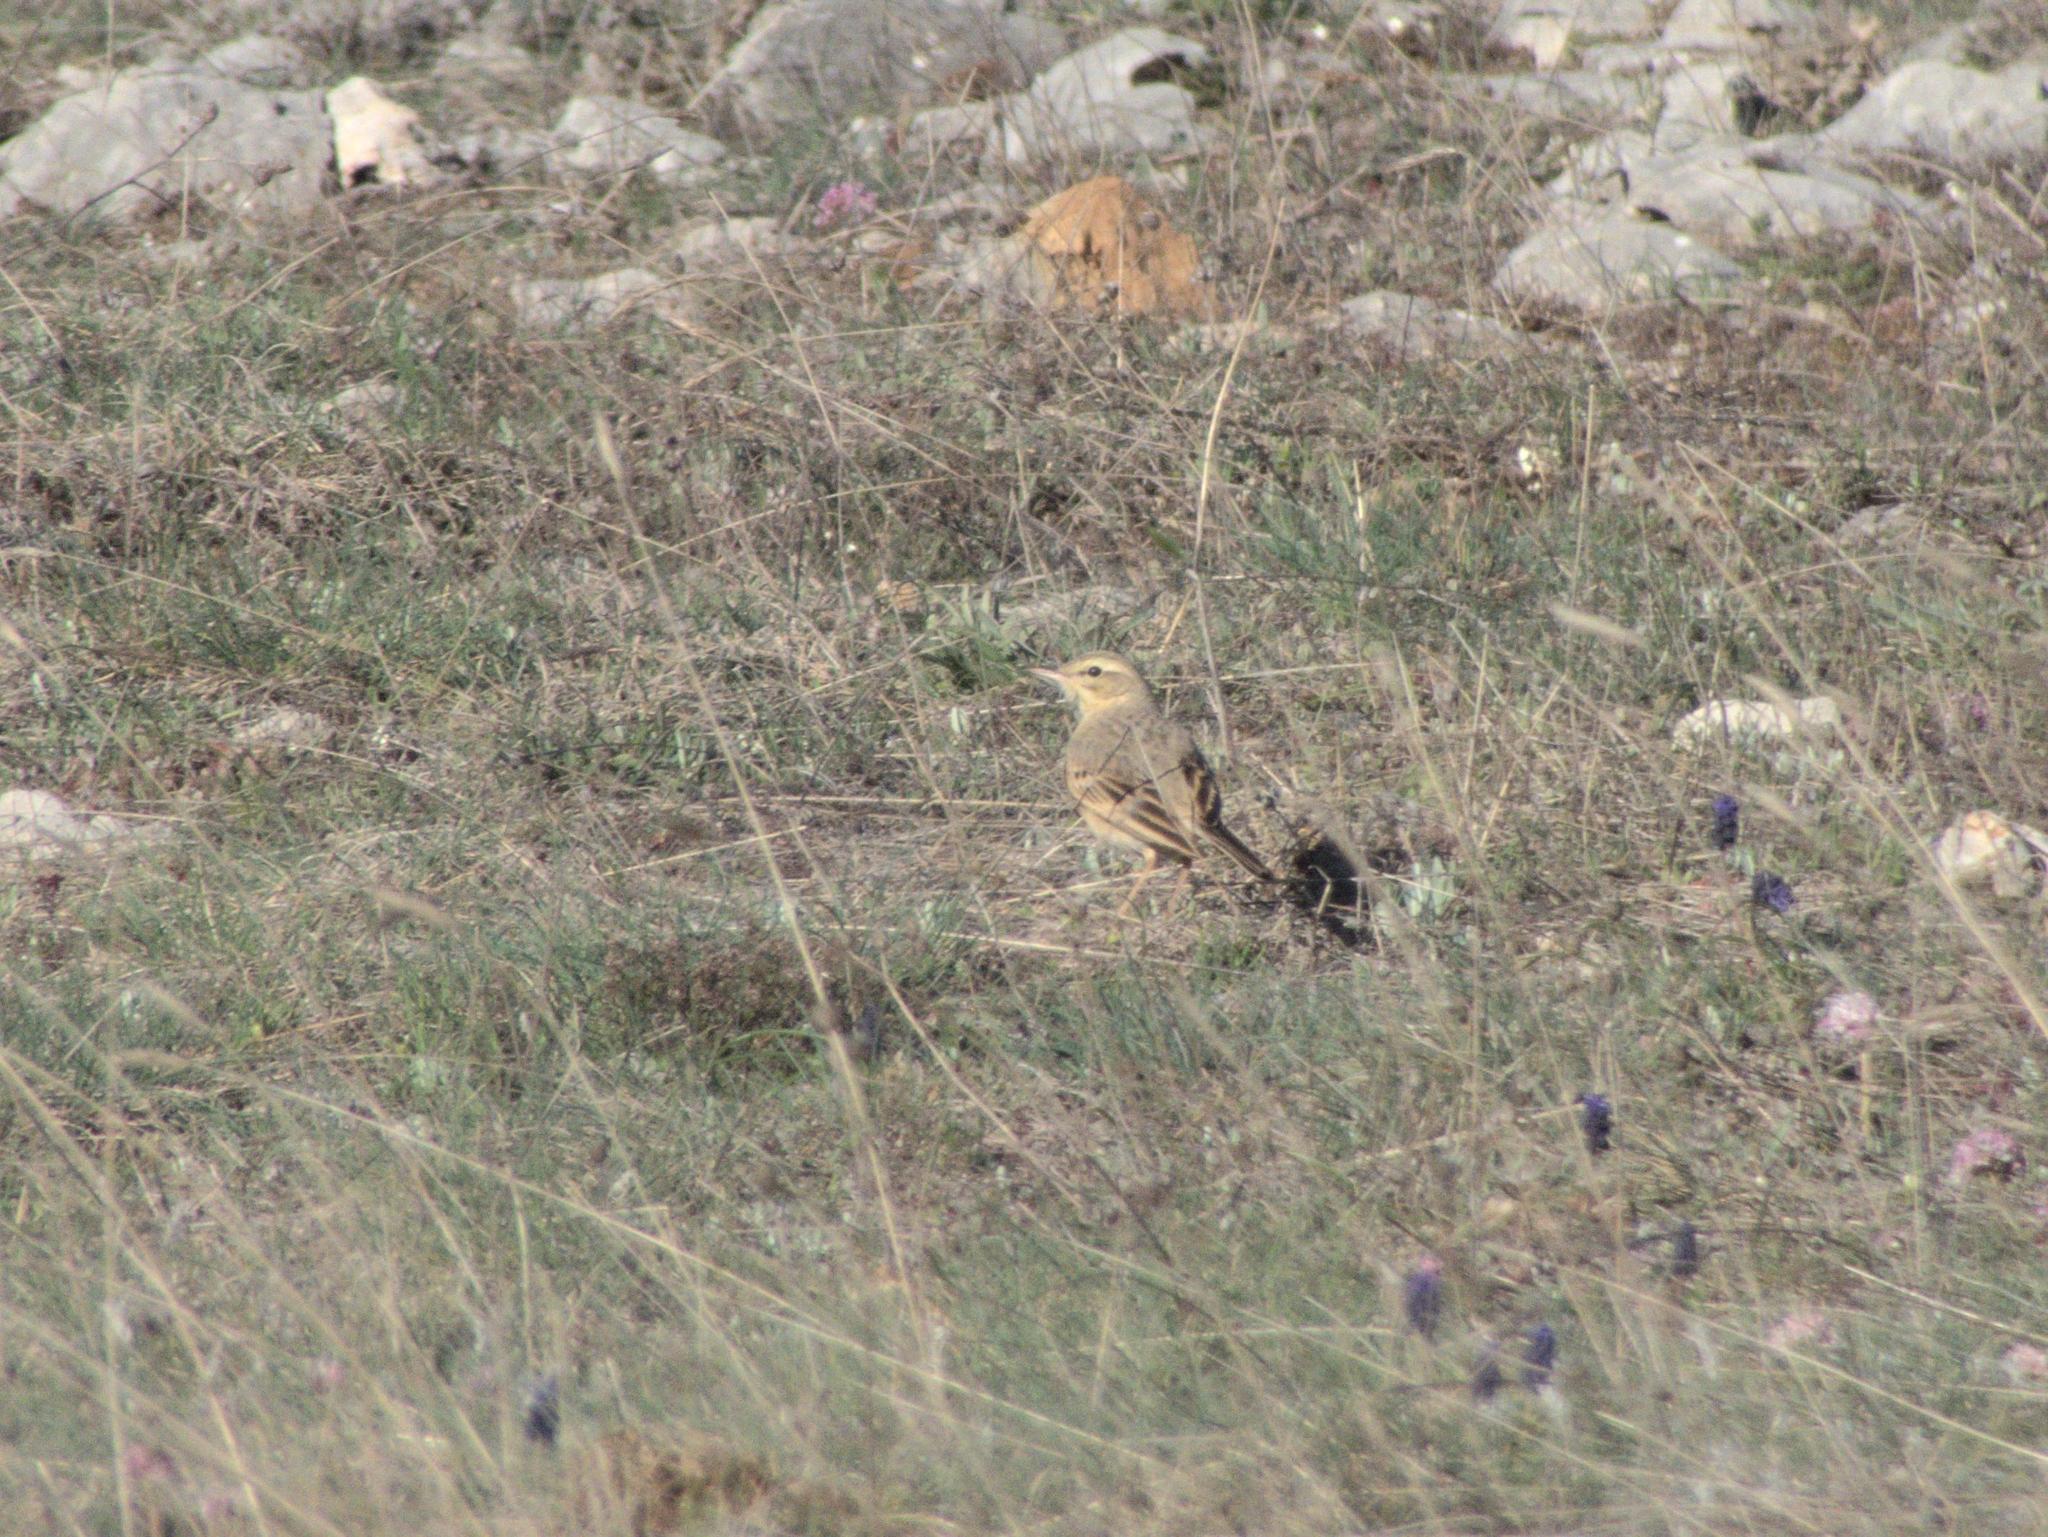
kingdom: Animalia
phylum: Chordata
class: Aves
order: Passeriformes
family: Motacillidae
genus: Anthus
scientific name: Anthus campestris
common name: Tawny pipit
